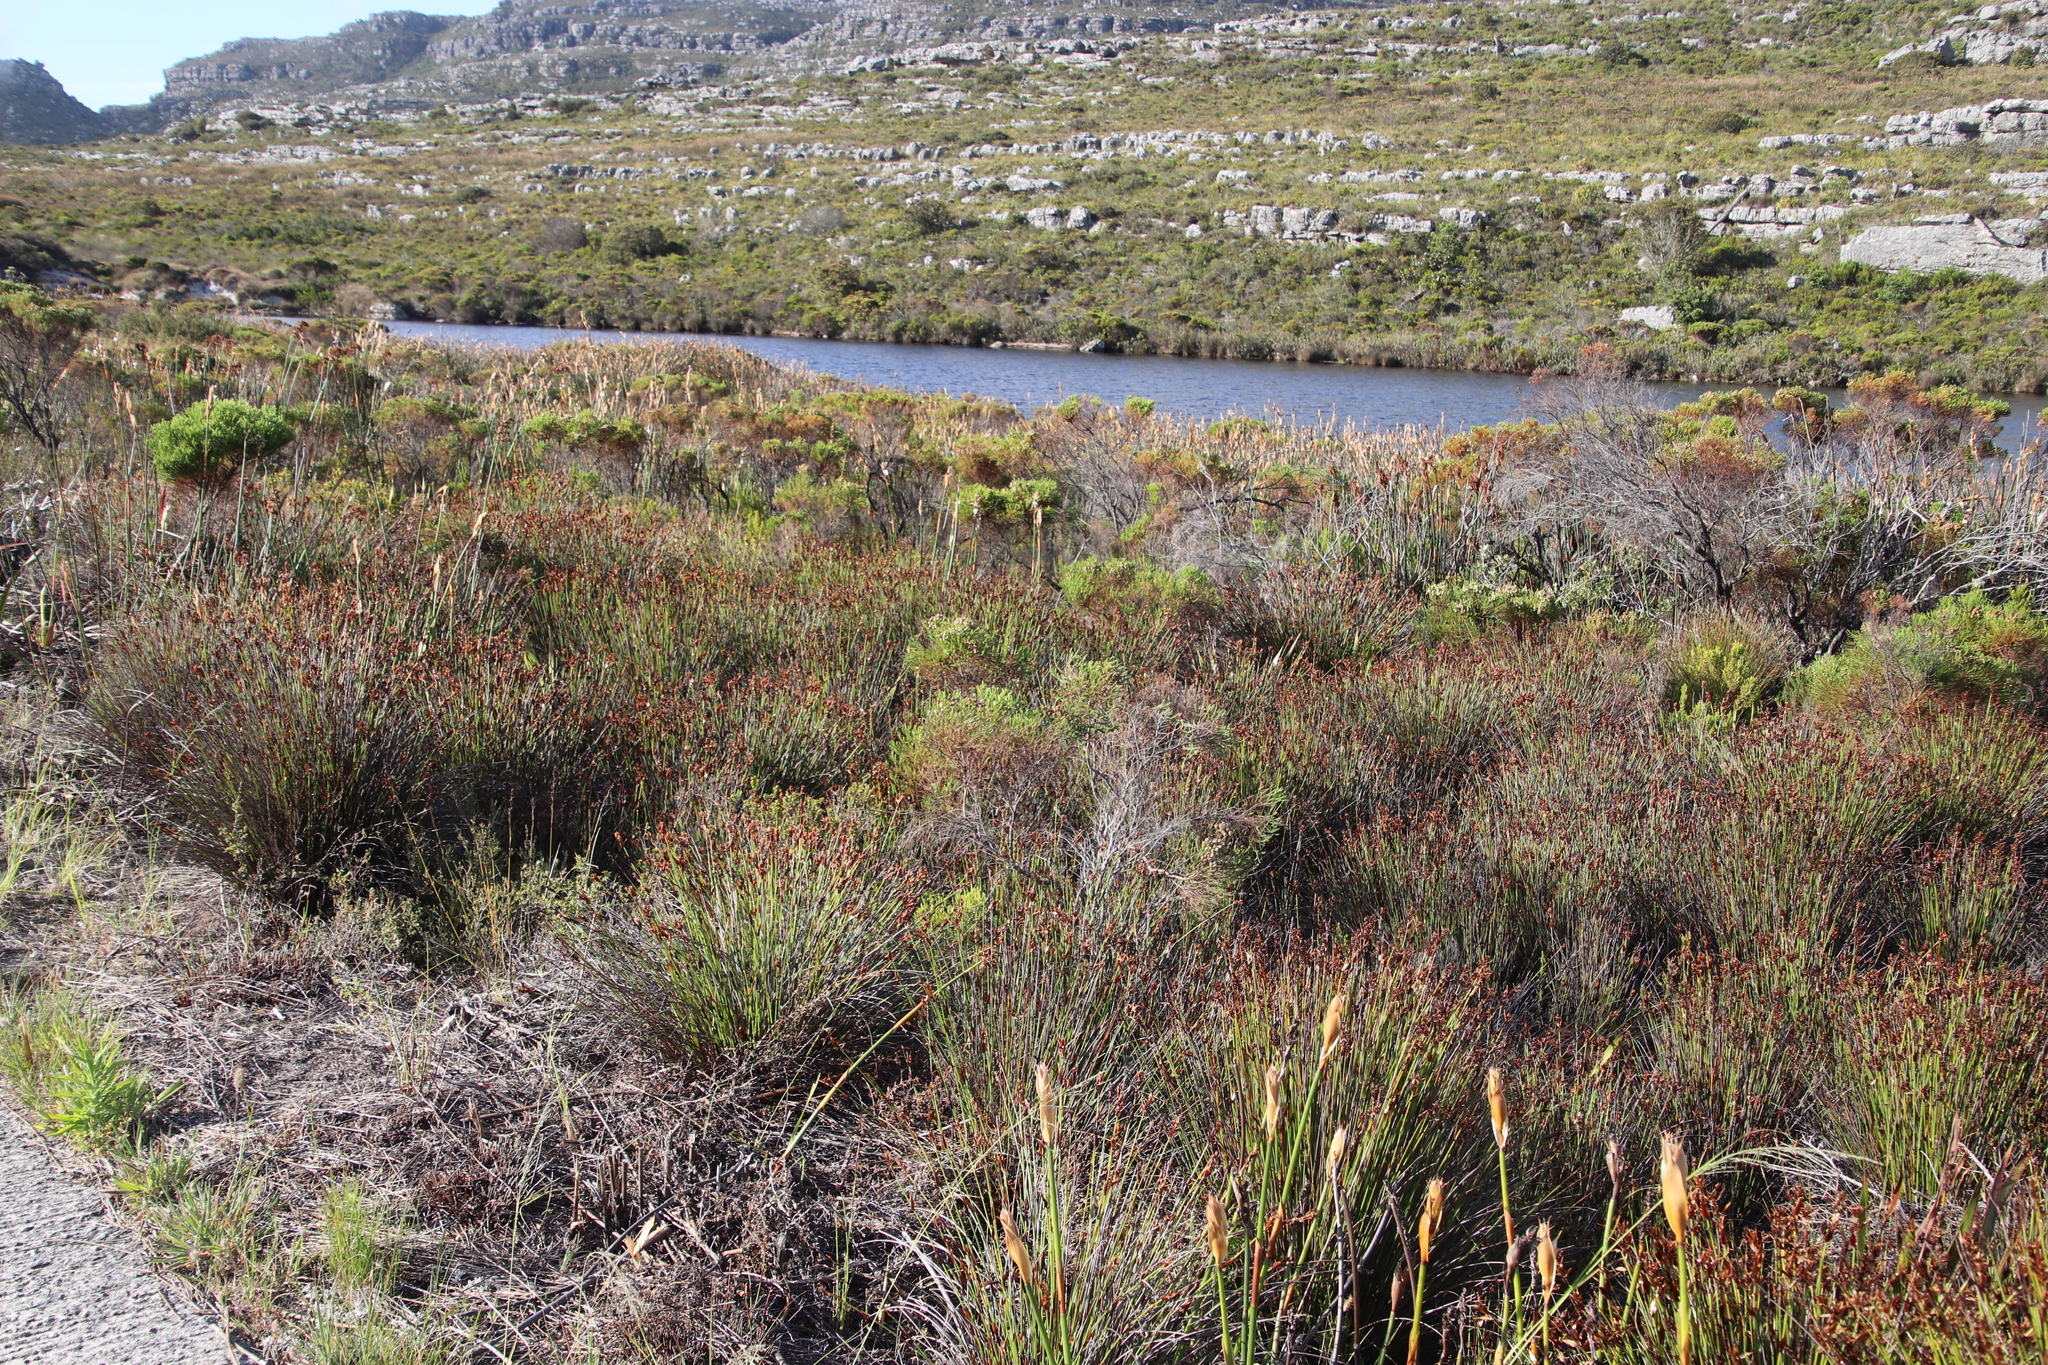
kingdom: Plantae
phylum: Tracheophyta
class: Liliopsida
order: Poales
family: Restionaceae
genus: Elegia
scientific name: Elegia ebracteata
